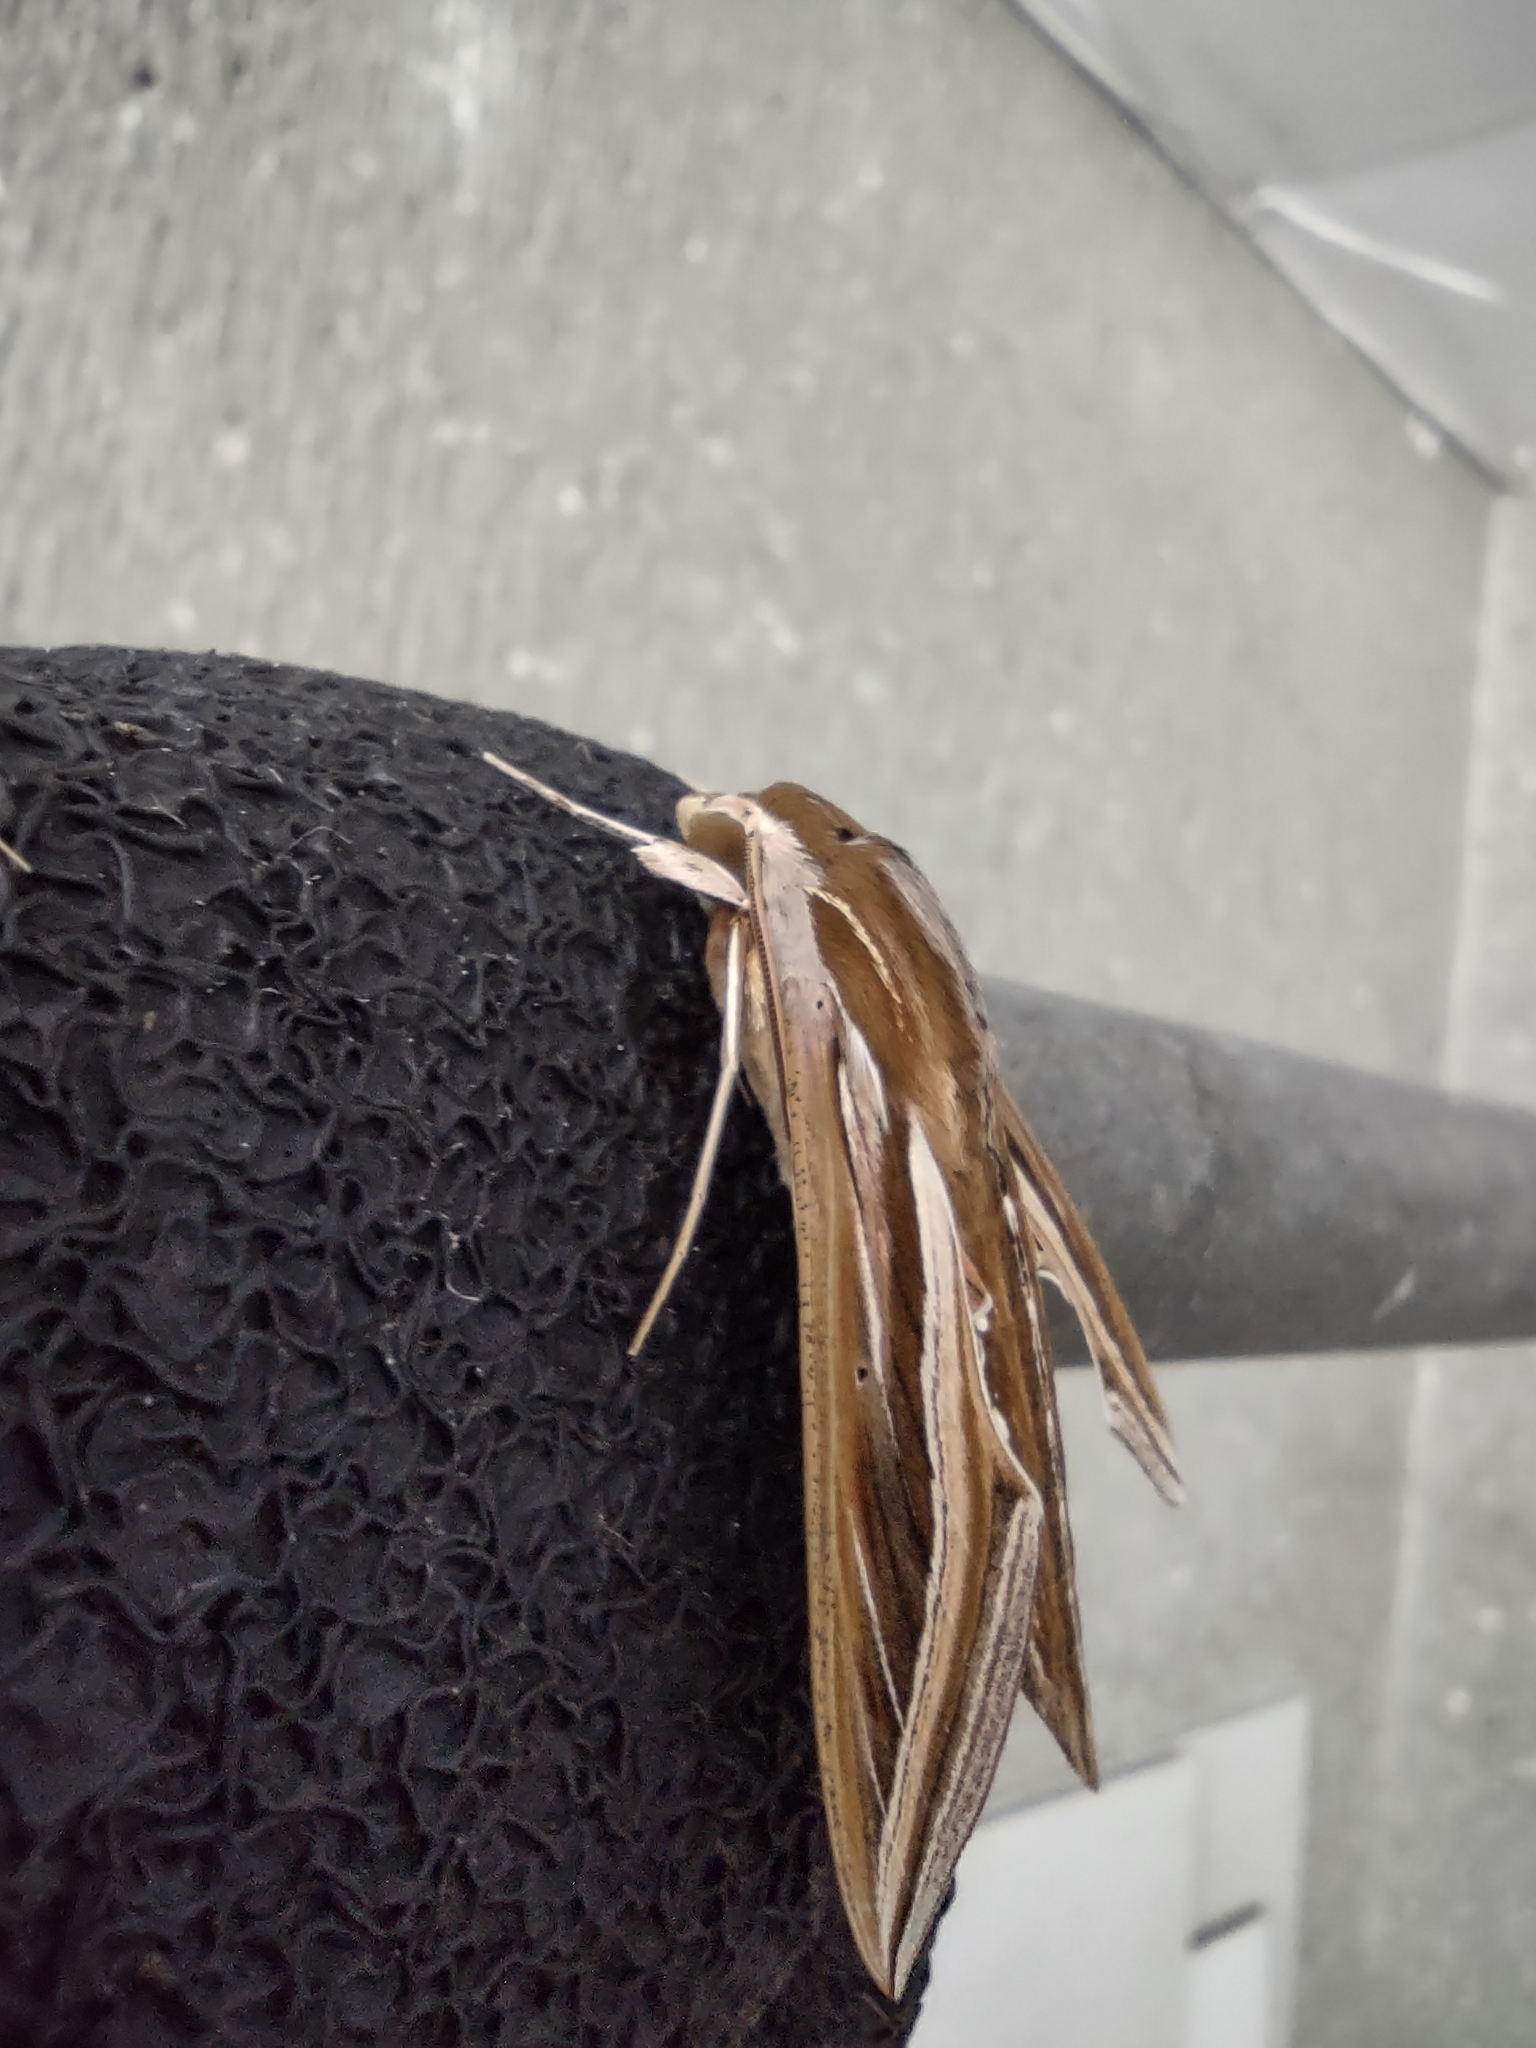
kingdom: Animalia
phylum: Arthropoda
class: Insecta
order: Lepidoptera
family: Sphingidae
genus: Hippotion
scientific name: Hippotion celerio
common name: Silver-striped hawk-moth
